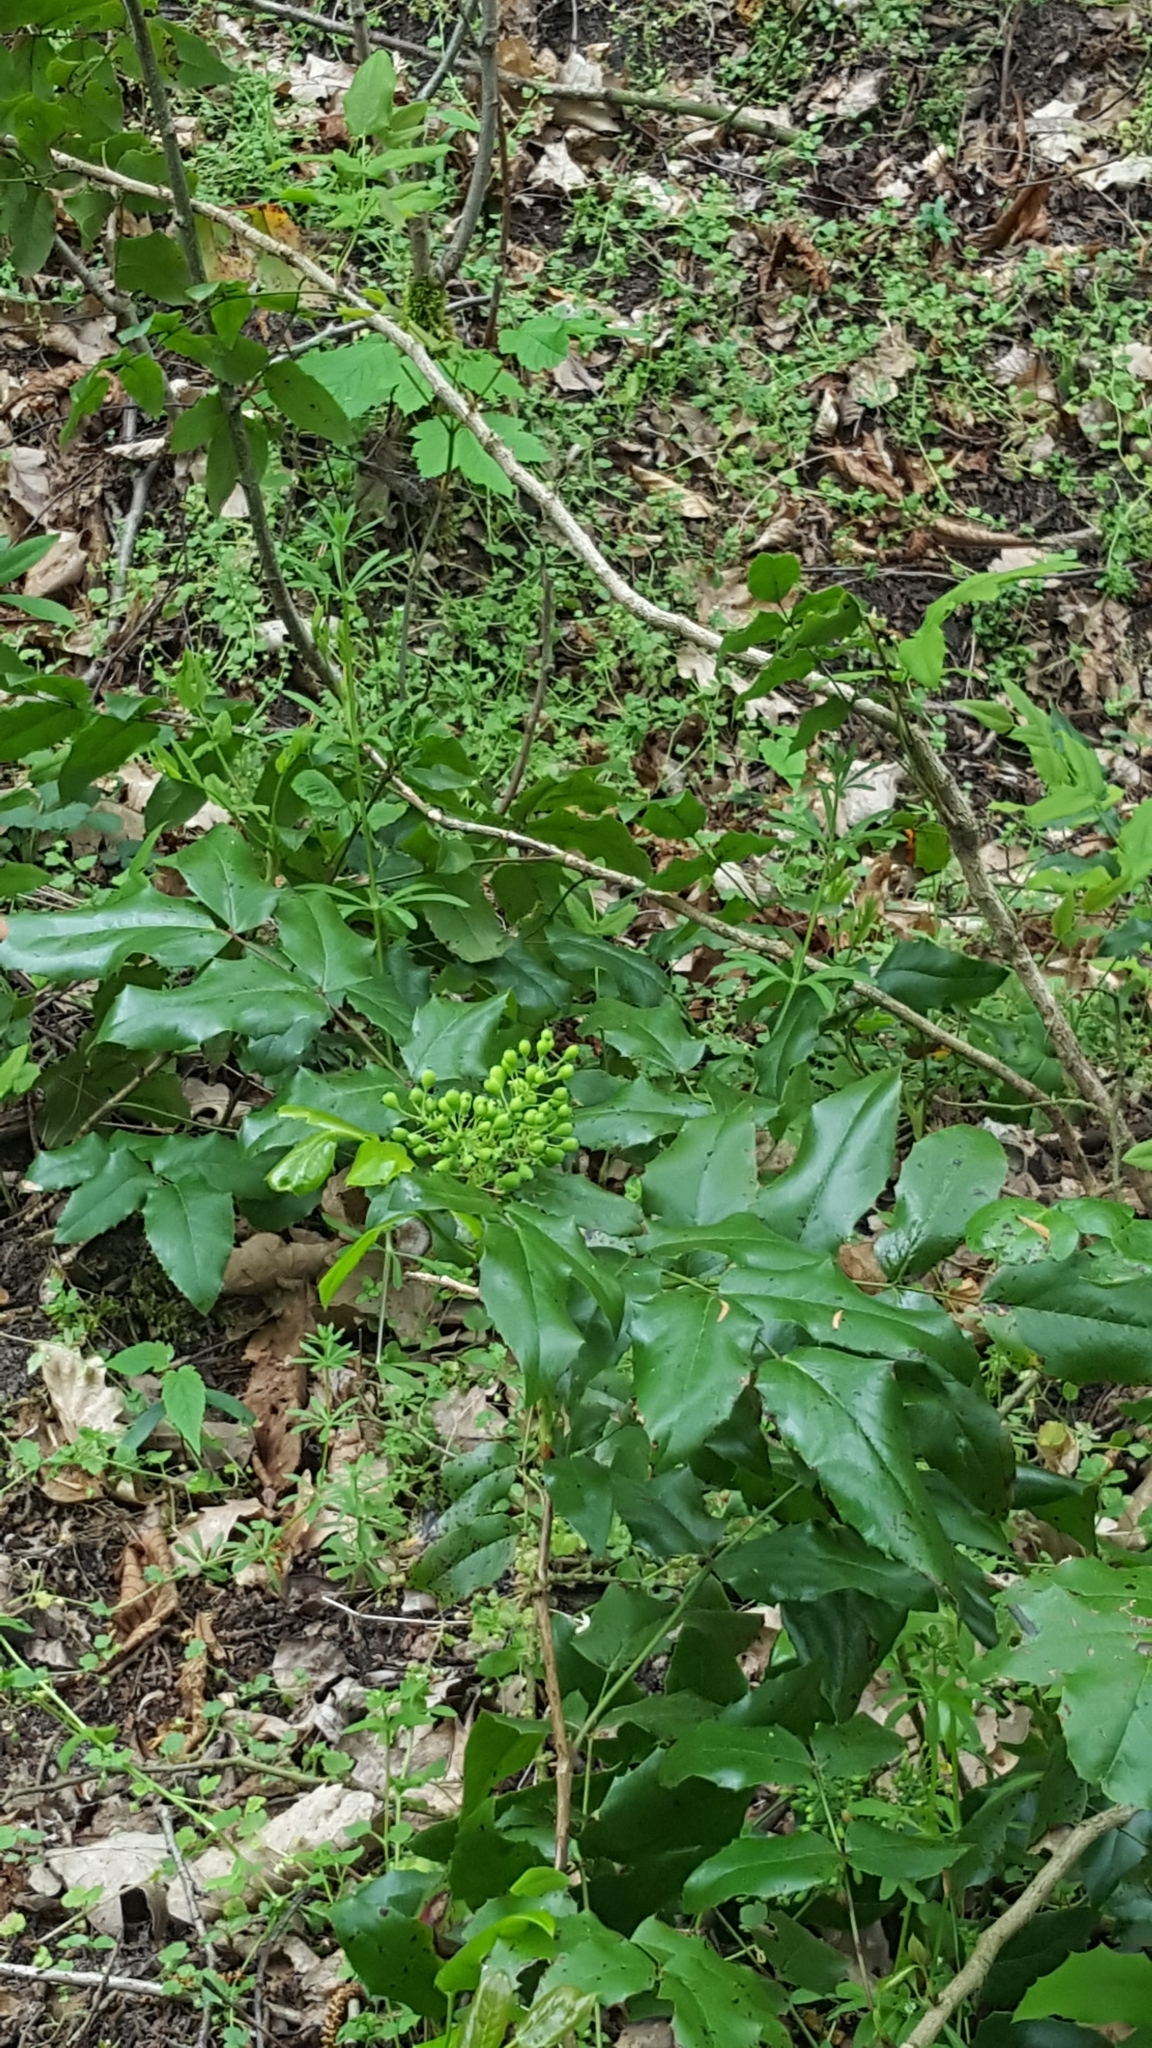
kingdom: Plantae
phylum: Tracheophyta
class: Magnoliopsida
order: Ranunculales
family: Berberidaceae
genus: Mahonia
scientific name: Mahonia aquifolium
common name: Oregon-grape
